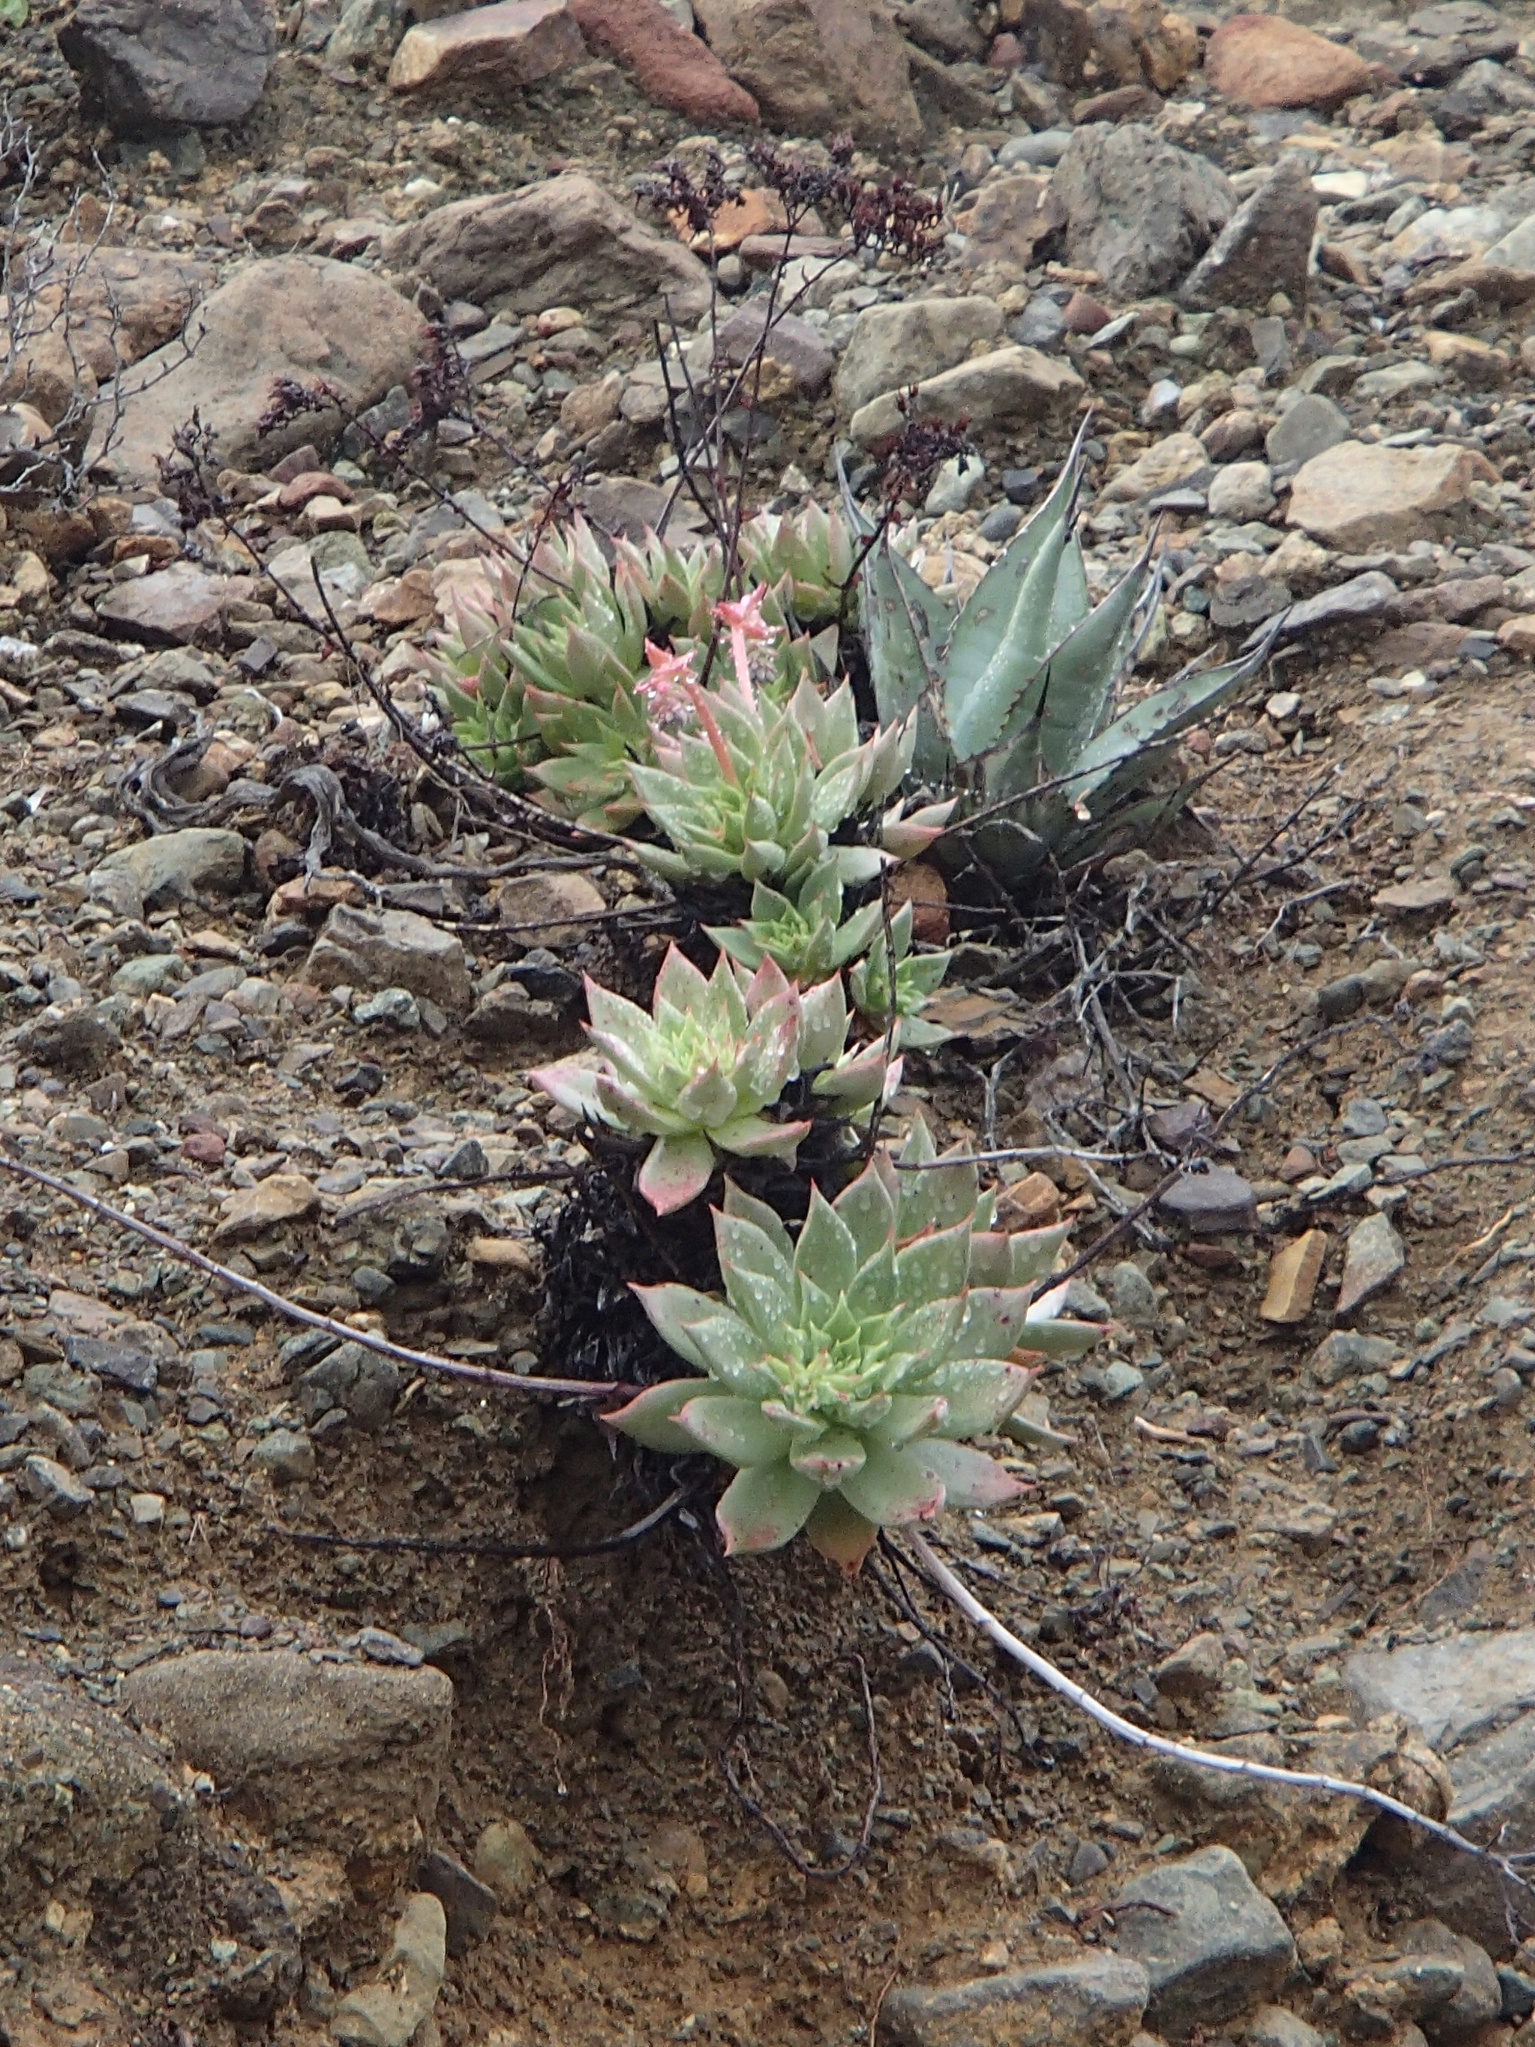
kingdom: Plantae
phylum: Tracheophyta
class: Magnoliopsida
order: Saxifragales
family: Crassulaceae
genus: Dudleya
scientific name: Dudleya cochimiana
